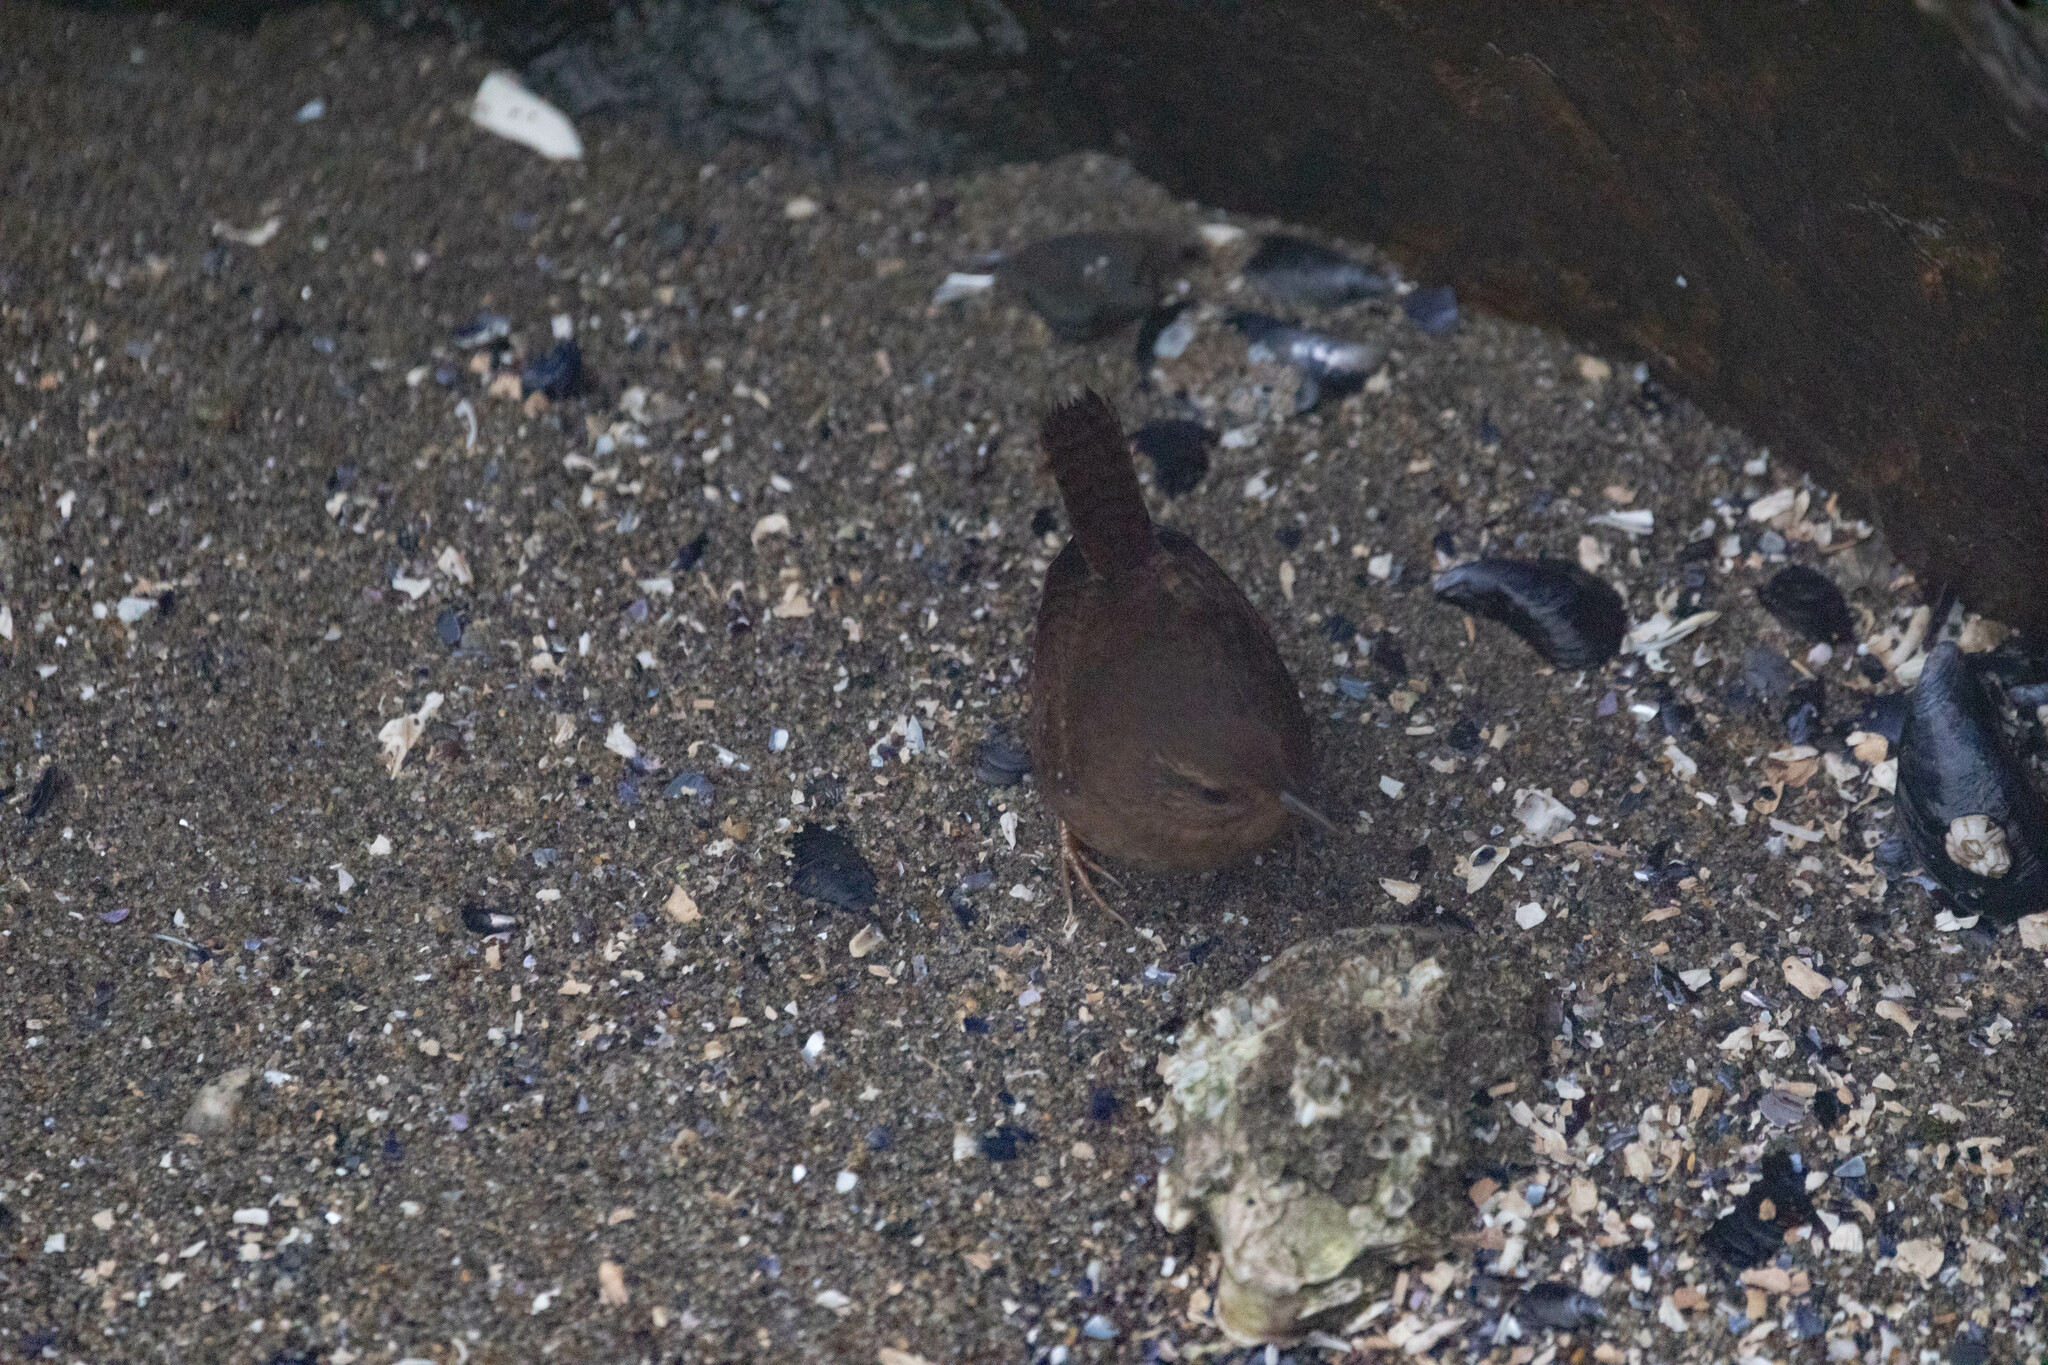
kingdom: Animalia
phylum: Chordata
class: Aves
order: Passeriformes
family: Troglodytidae
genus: Troglodytes
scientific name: Troglodytes pacificus
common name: Pacific wren
